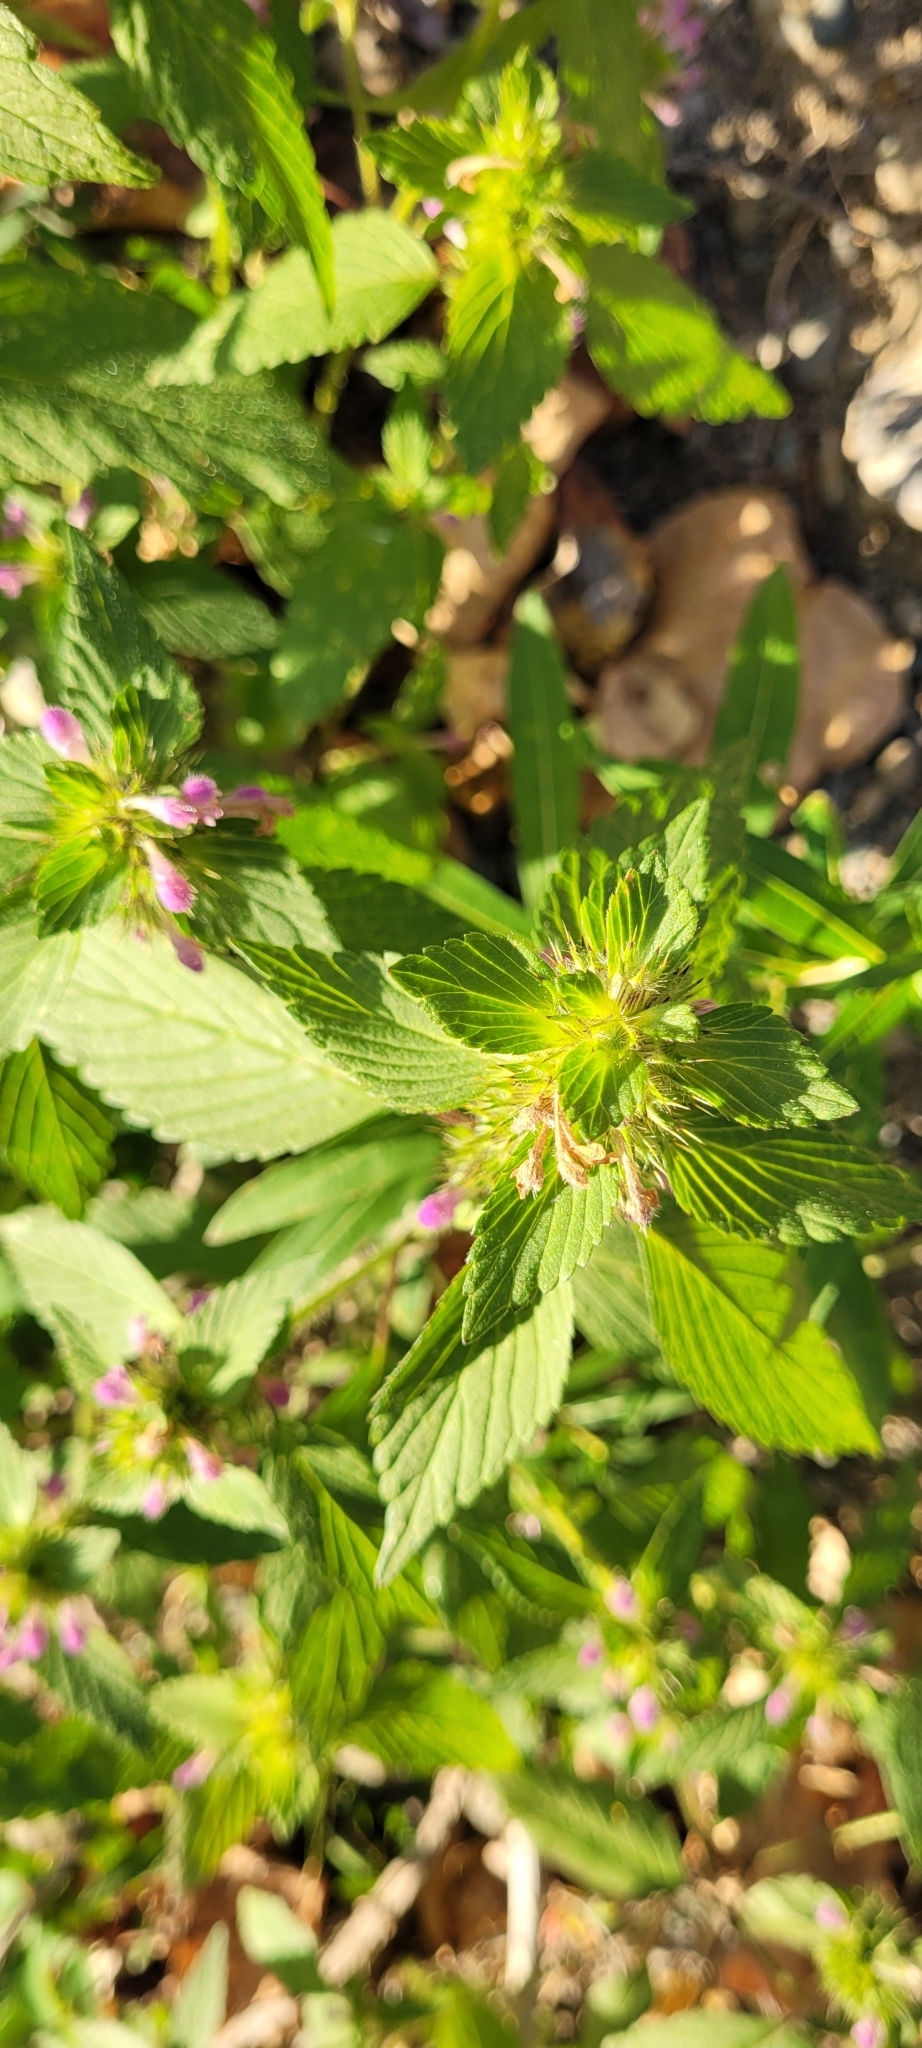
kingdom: Plantae
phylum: Tracheophyta
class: Magnoliopsida
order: Lamiales
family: Lamiaceae
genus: Galeopsis
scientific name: Galeopsis bifida
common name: Bifid hemp-nettle
